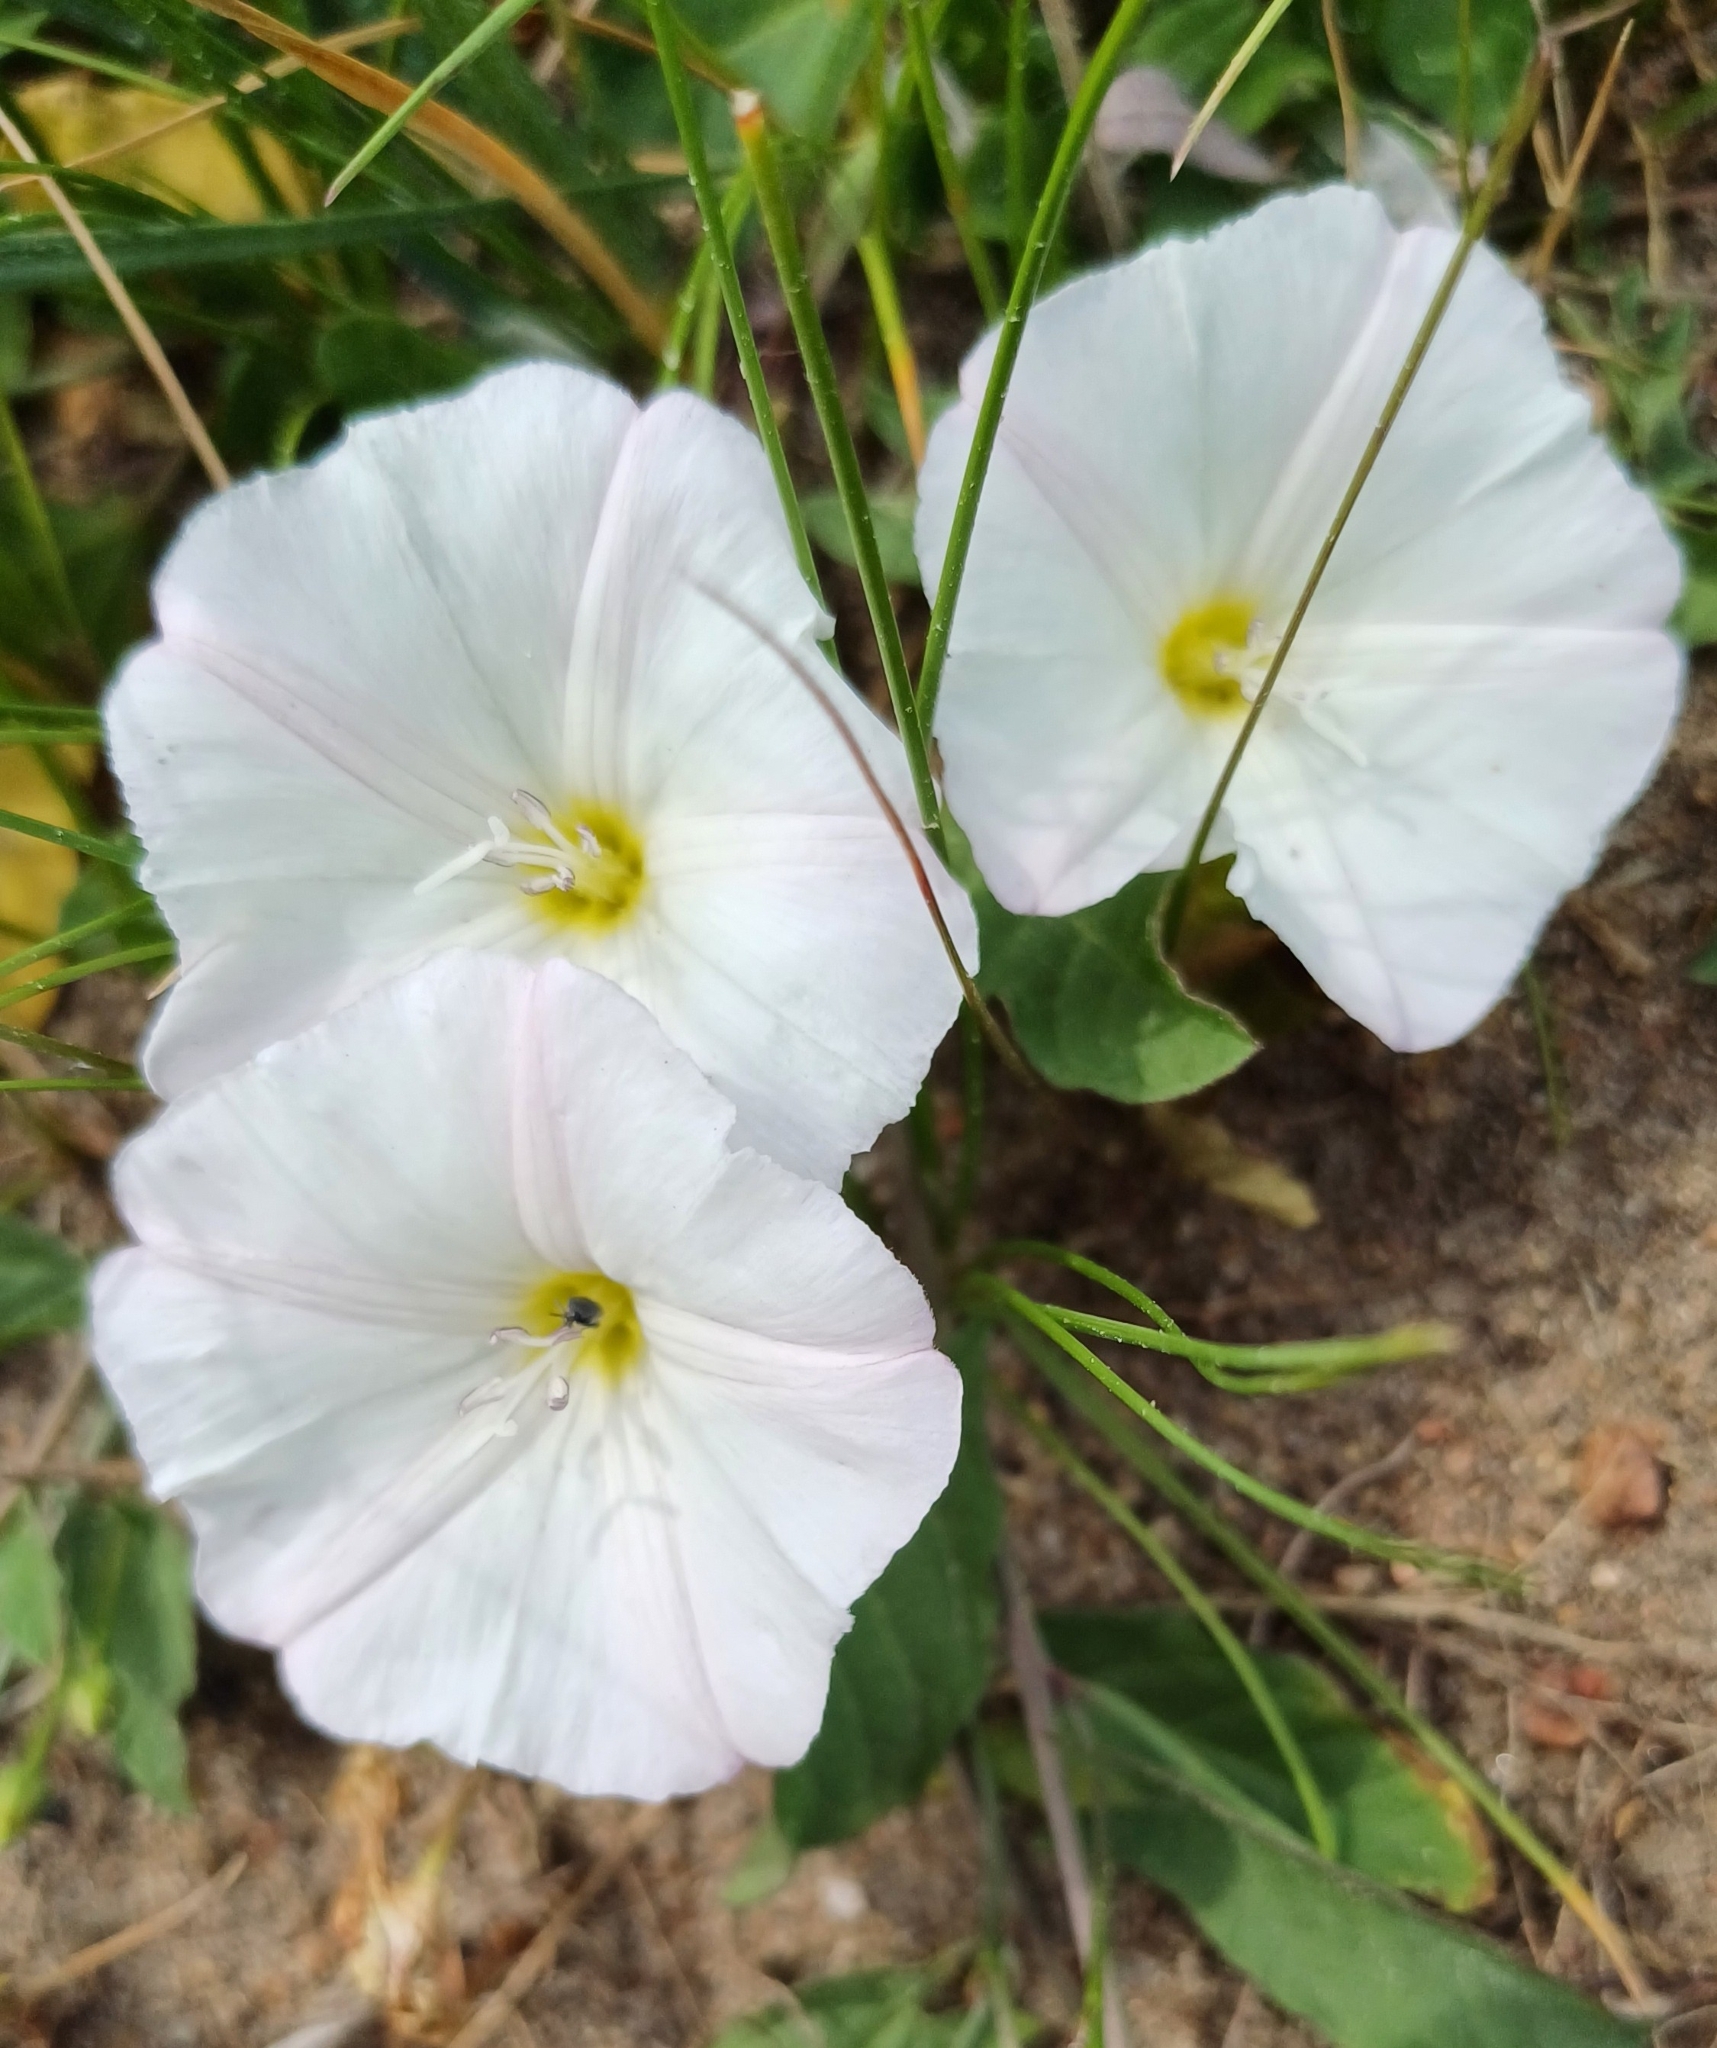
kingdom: Plantae
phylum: Tracheophyta
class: Magnoliopsida
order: Solanales
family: Convolvulaceae
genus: Convolvulus
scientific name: Convolvulus arvensis
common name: Field bindweed
